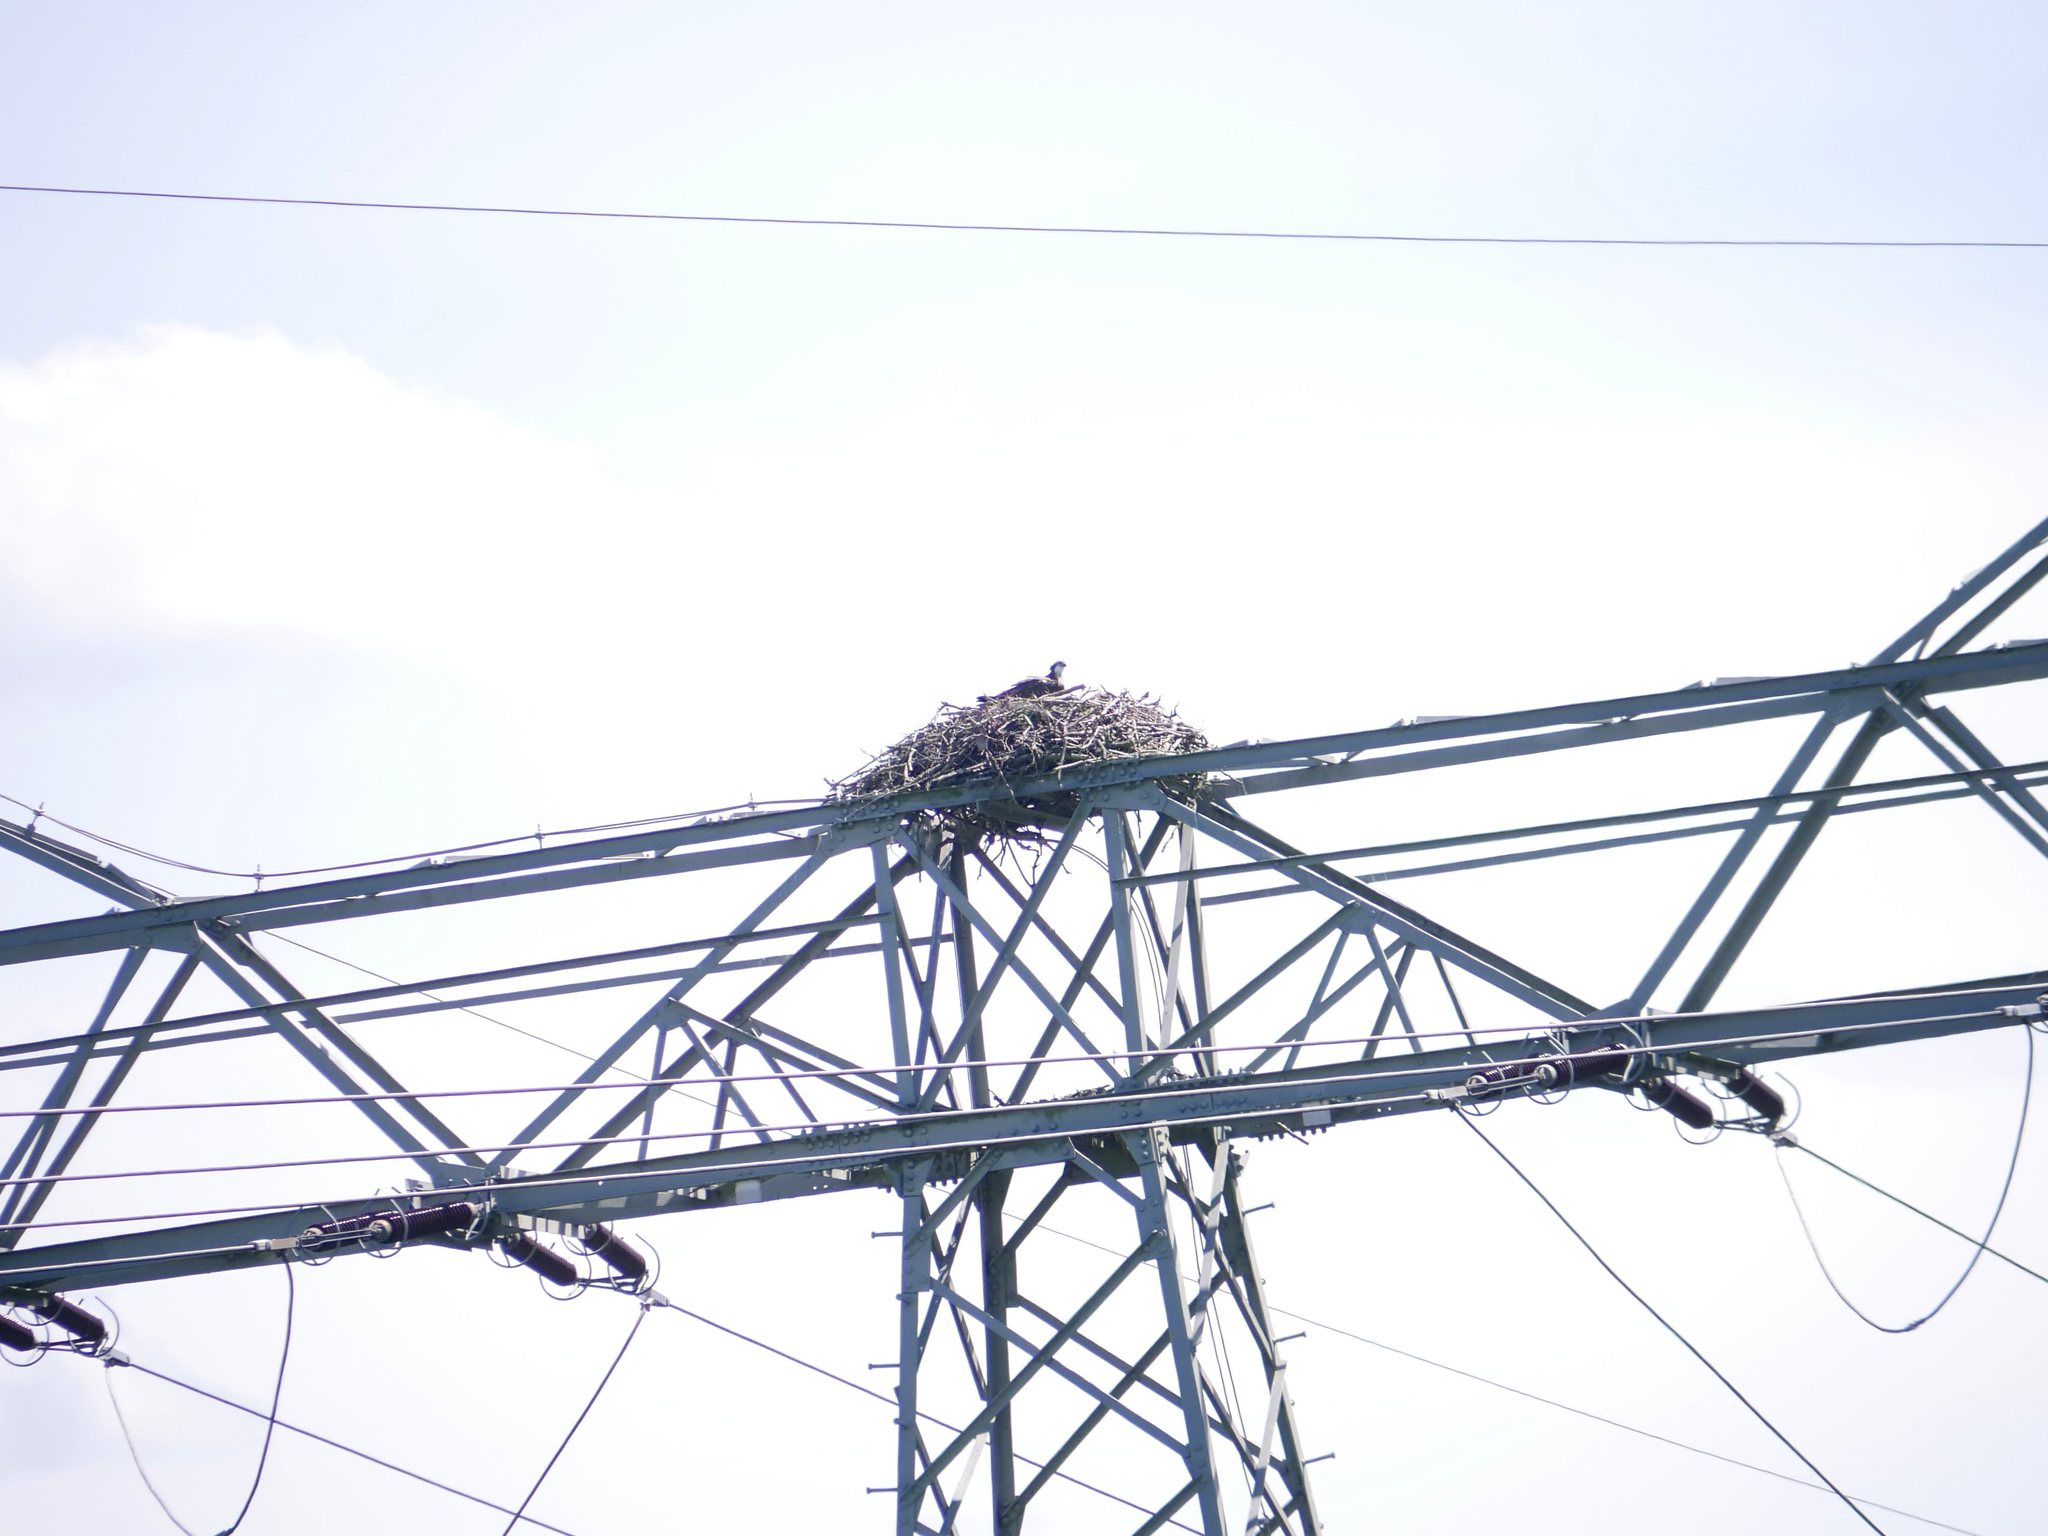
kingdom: Animalia
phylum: Chordata
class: Aves
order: Accipitriformes
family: Pandionidae
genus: Pandion
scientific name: Pandion haliaetus
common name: Osprey
